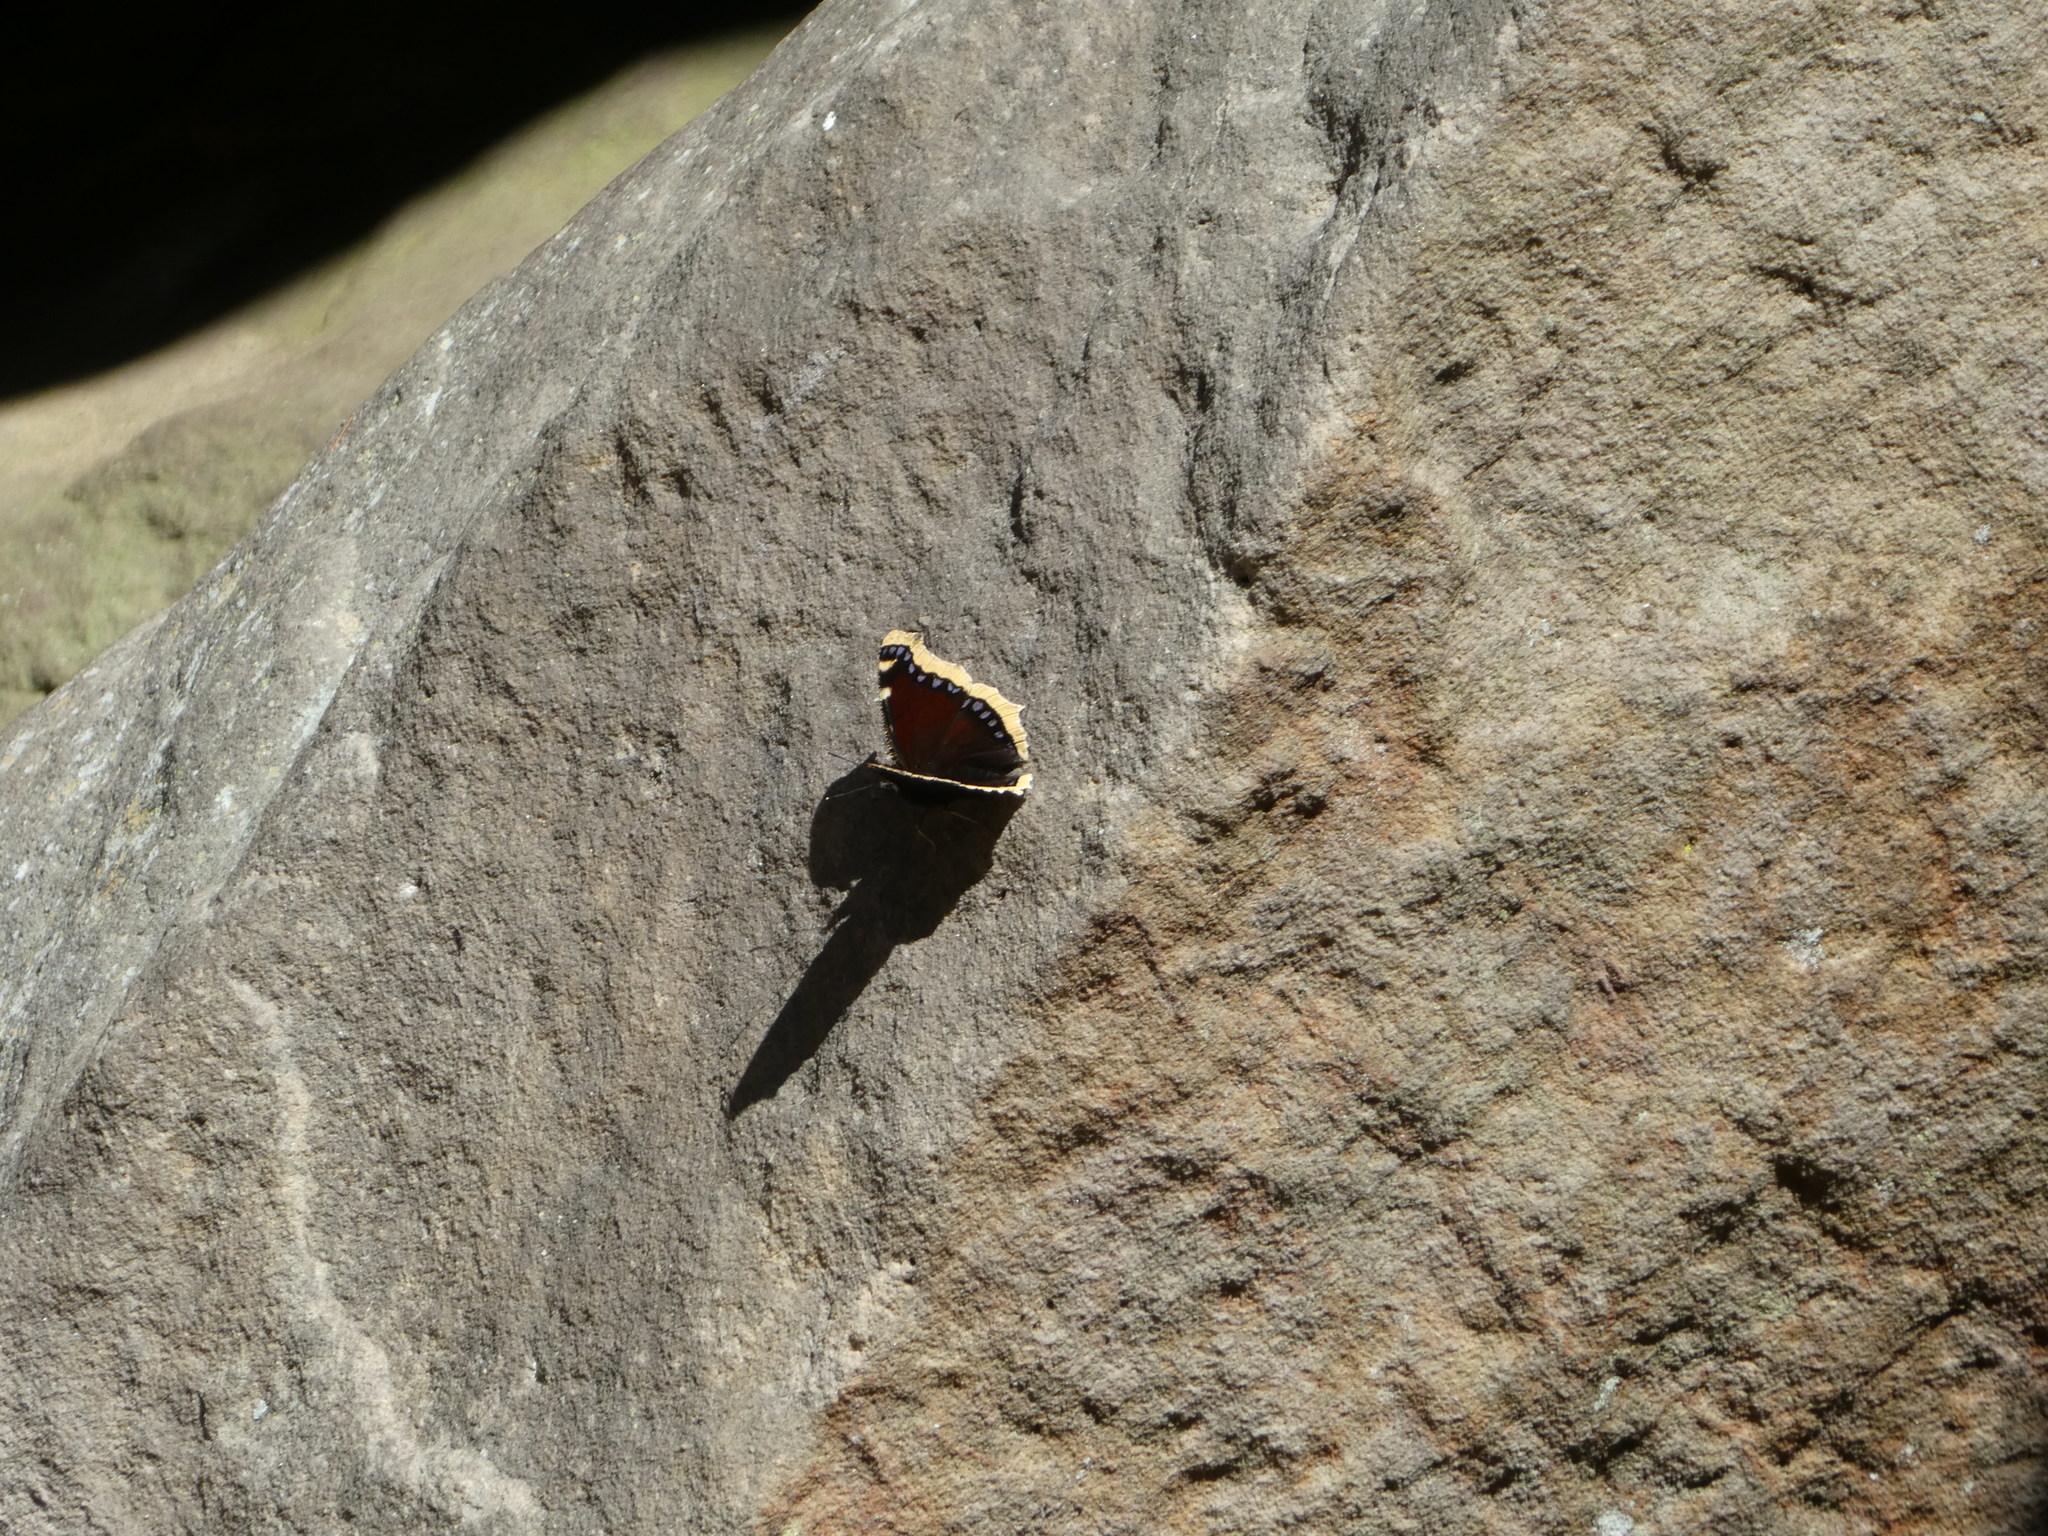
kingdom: Animalia
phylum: Arthropoda
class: Insecta
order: Lepidoptera
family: Nymphalidae
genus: Nymphalis
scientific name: Nymphalis antiopa
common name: Camberwell beauty
